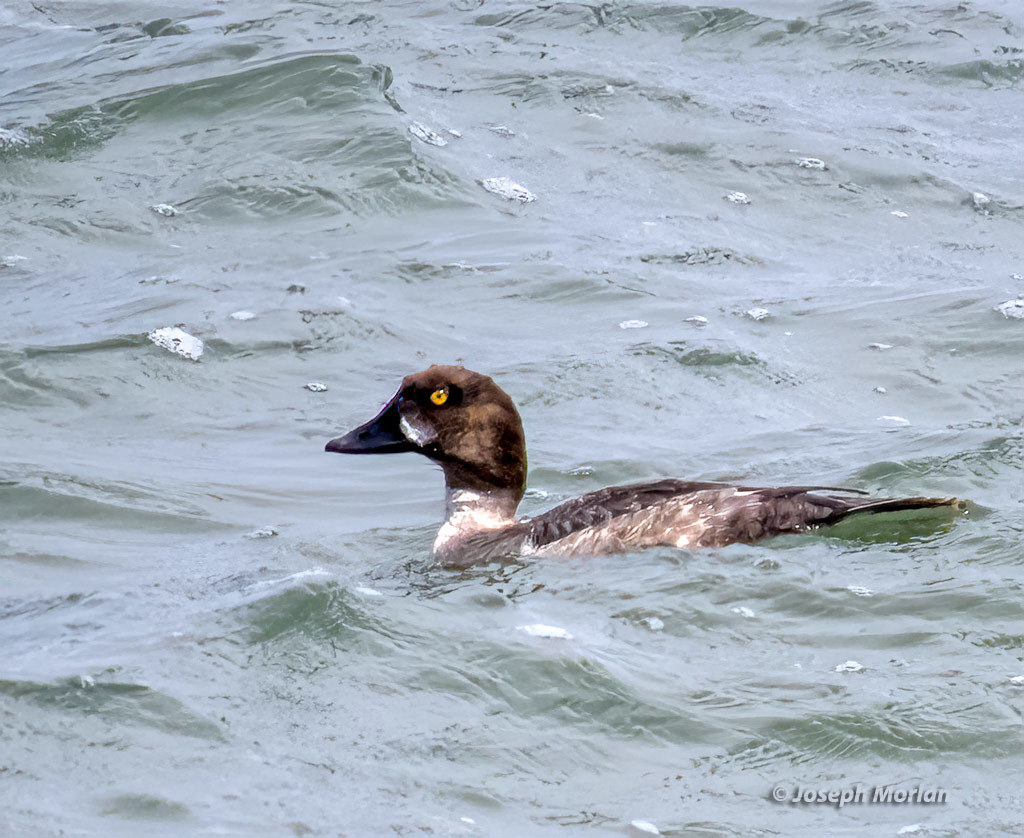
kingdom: Animalia
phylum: Chordata
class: Aves
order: Anseriformes
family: Anatidae
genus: Bucephala
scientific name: Bucephala clangula
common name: Common goldeneye
